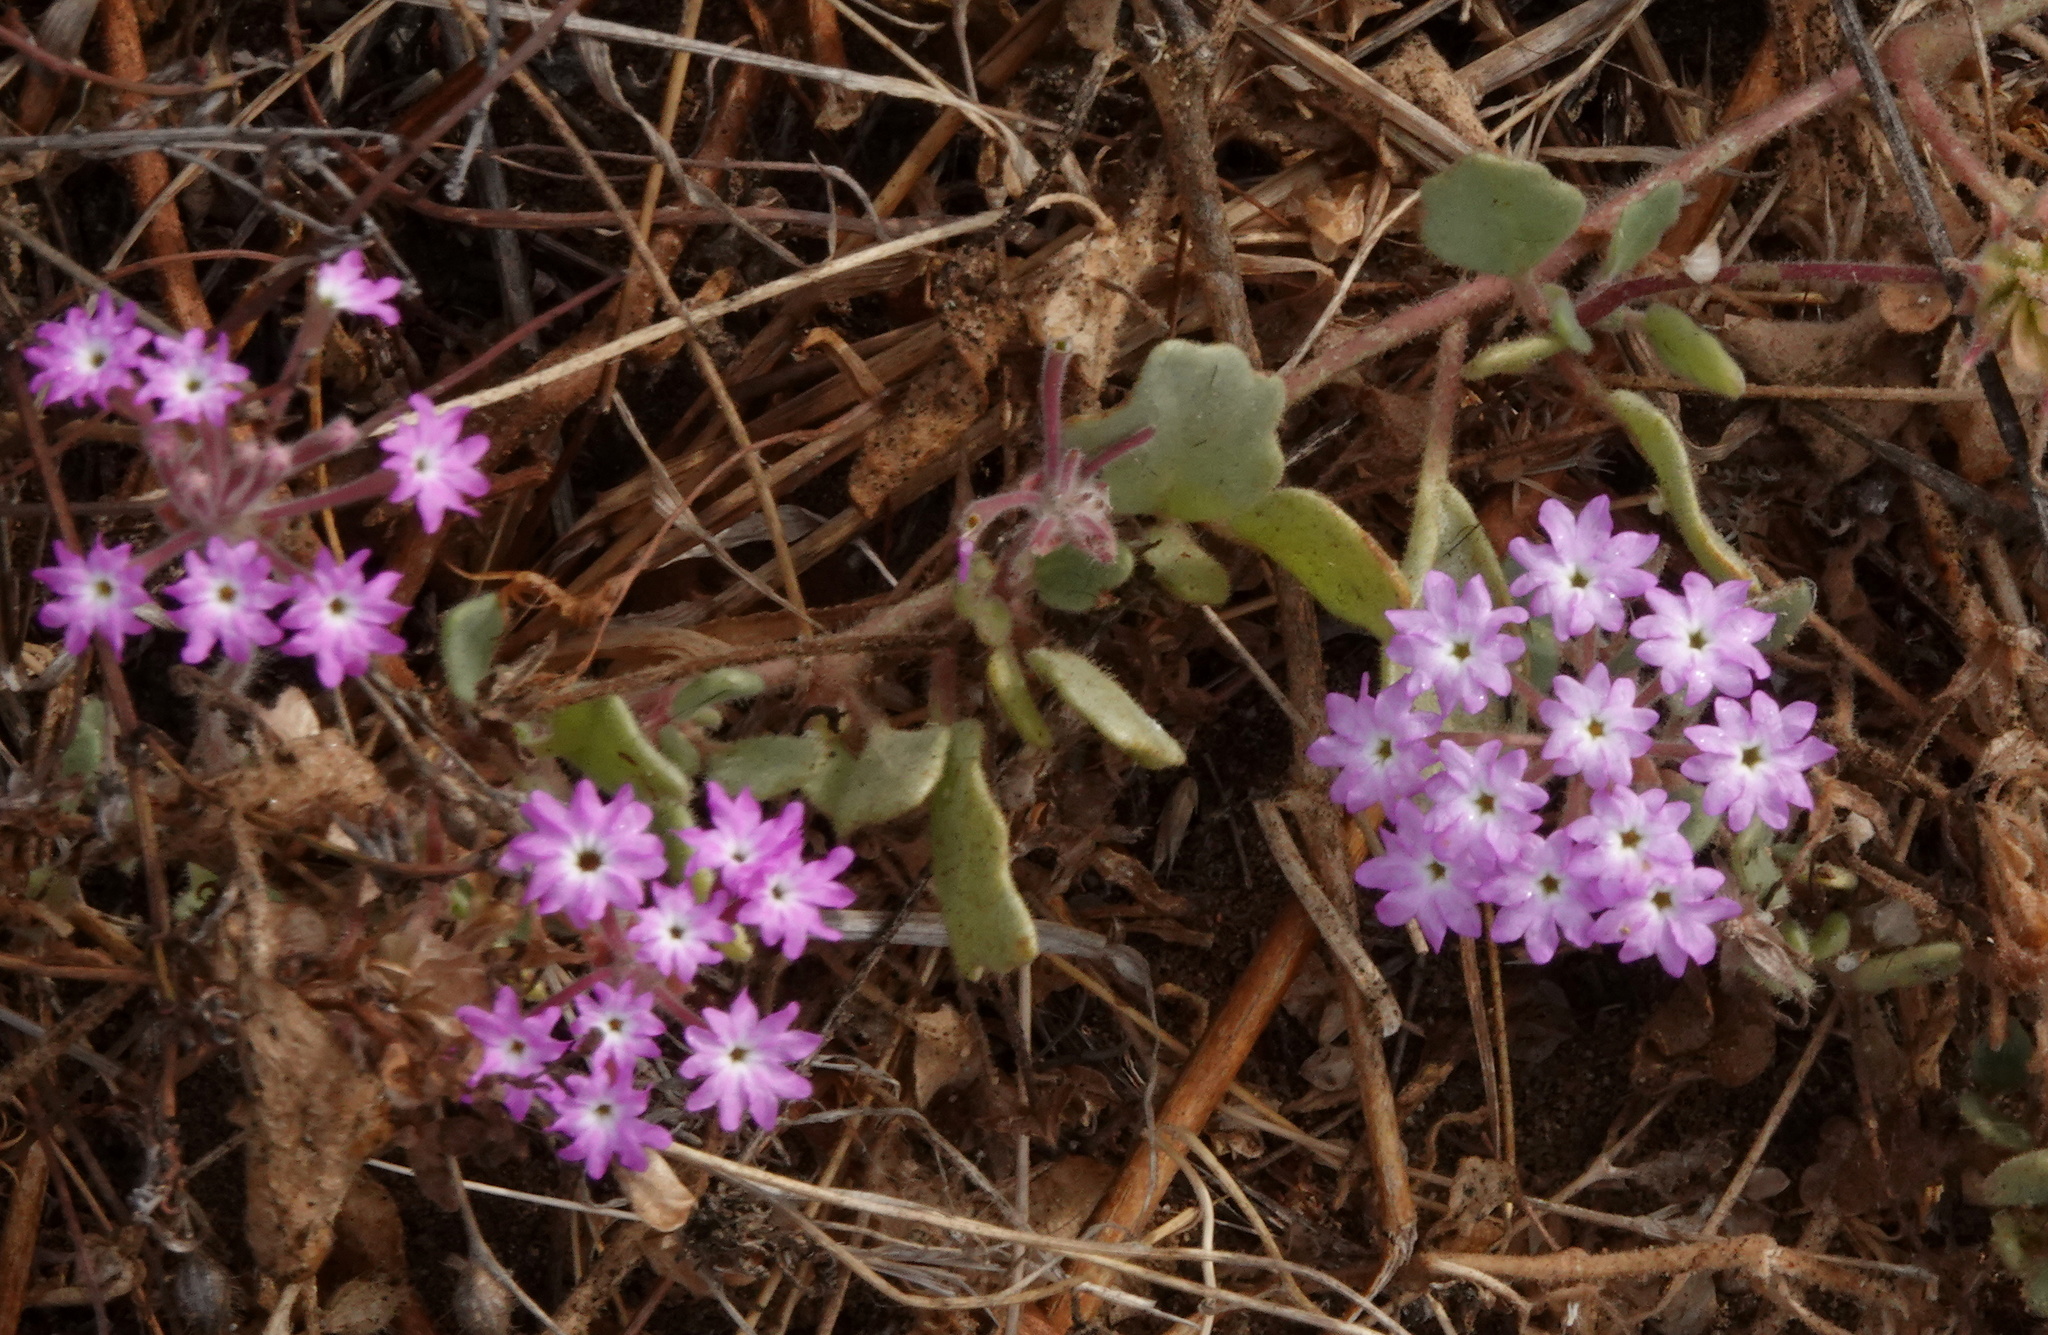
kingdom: Plantae
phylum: Tracheophyta
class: Magnoliopsida
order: Caryophyllales
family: Nyctaginaceae
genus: Abronia
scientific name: Abronia umbellata
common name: Sand-verbena
